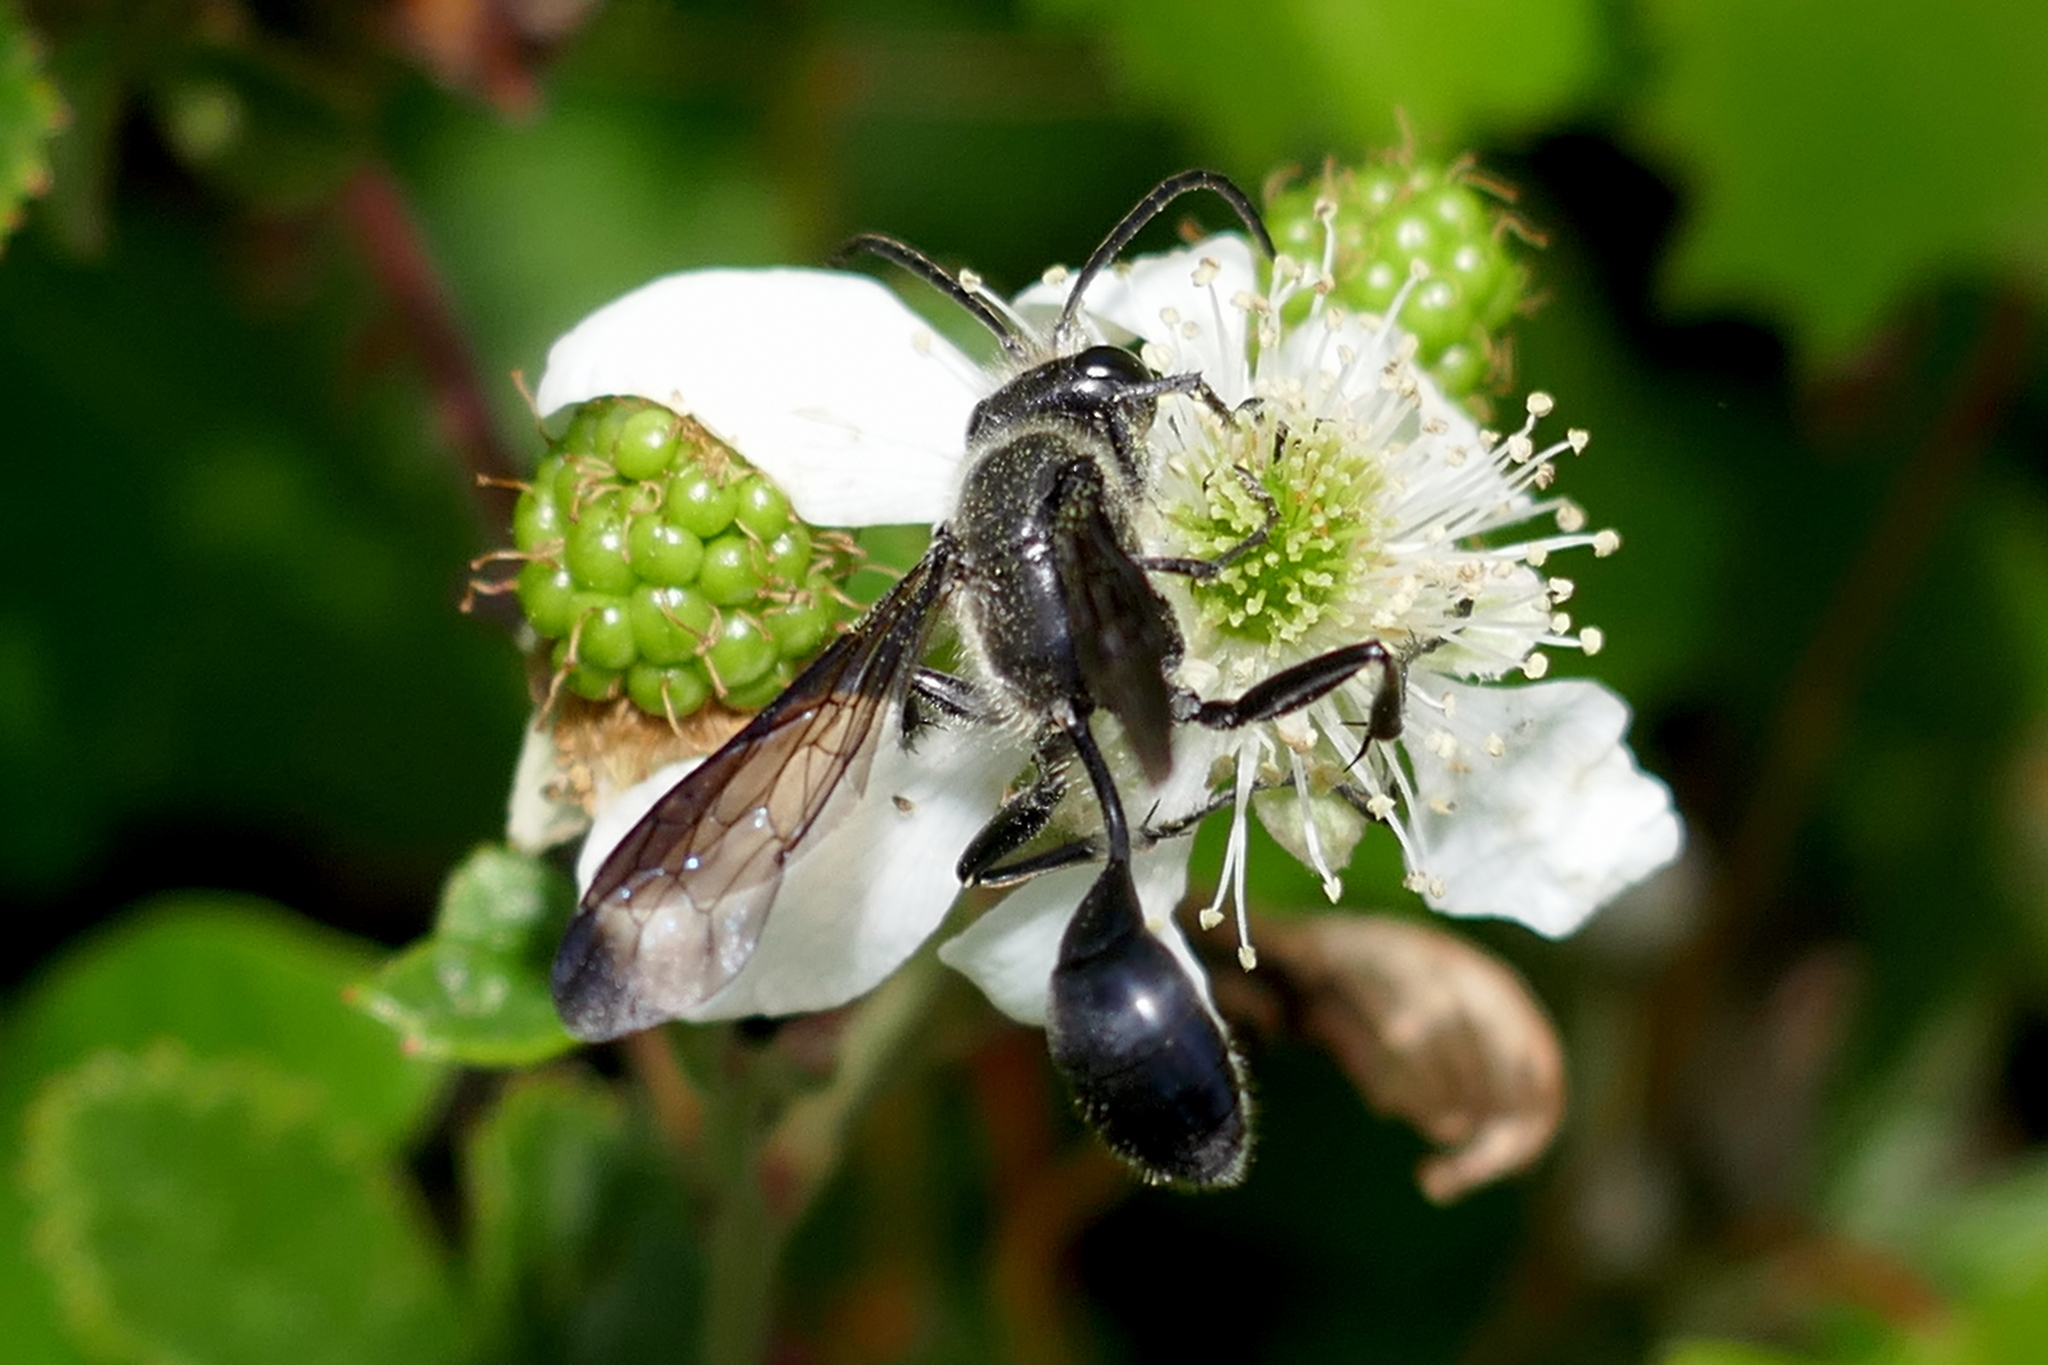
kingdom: Animalia
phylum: Arthropoda
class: Insecta
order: Hymenoptera
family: Sphecidae
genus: Isodontia
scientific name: Isodontia mexicana
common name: Mud dauber
